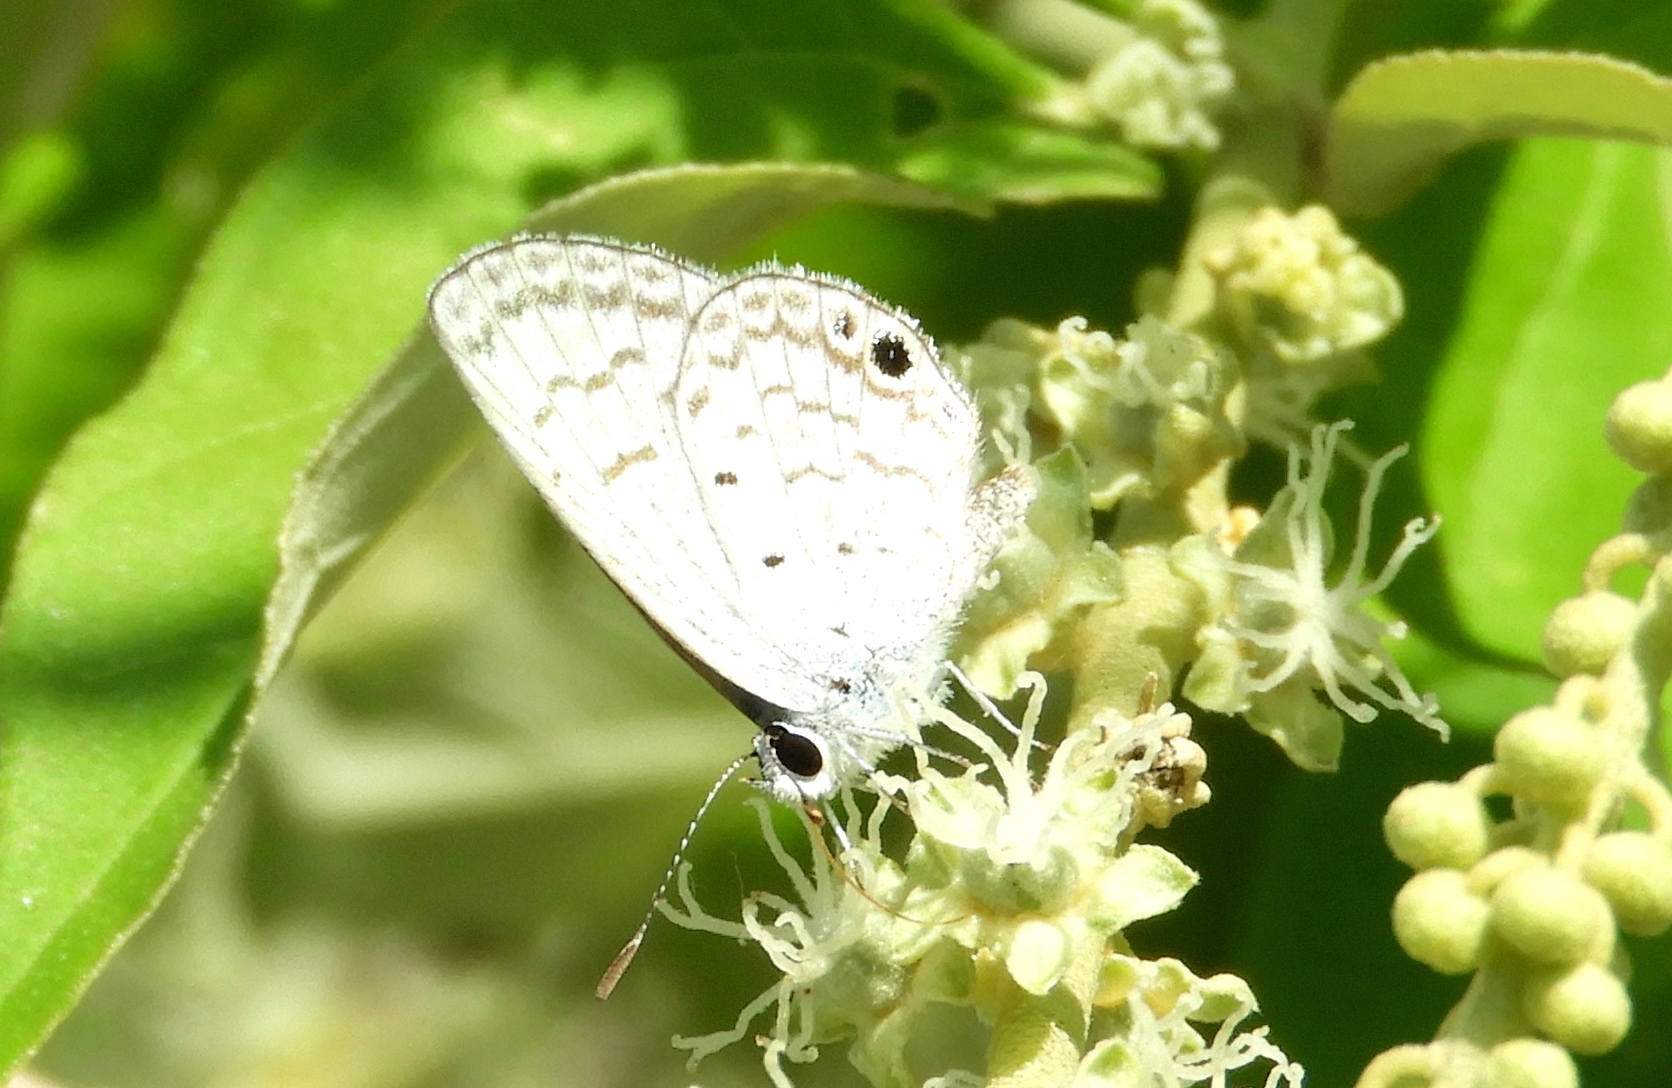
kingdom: Animalia
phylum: Arthropoda
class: Insecta
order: Lepidoptera
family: Lycaenidae
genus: Hemiargus
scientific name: Hemiargus ceraunus
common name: Ceraunus blue
